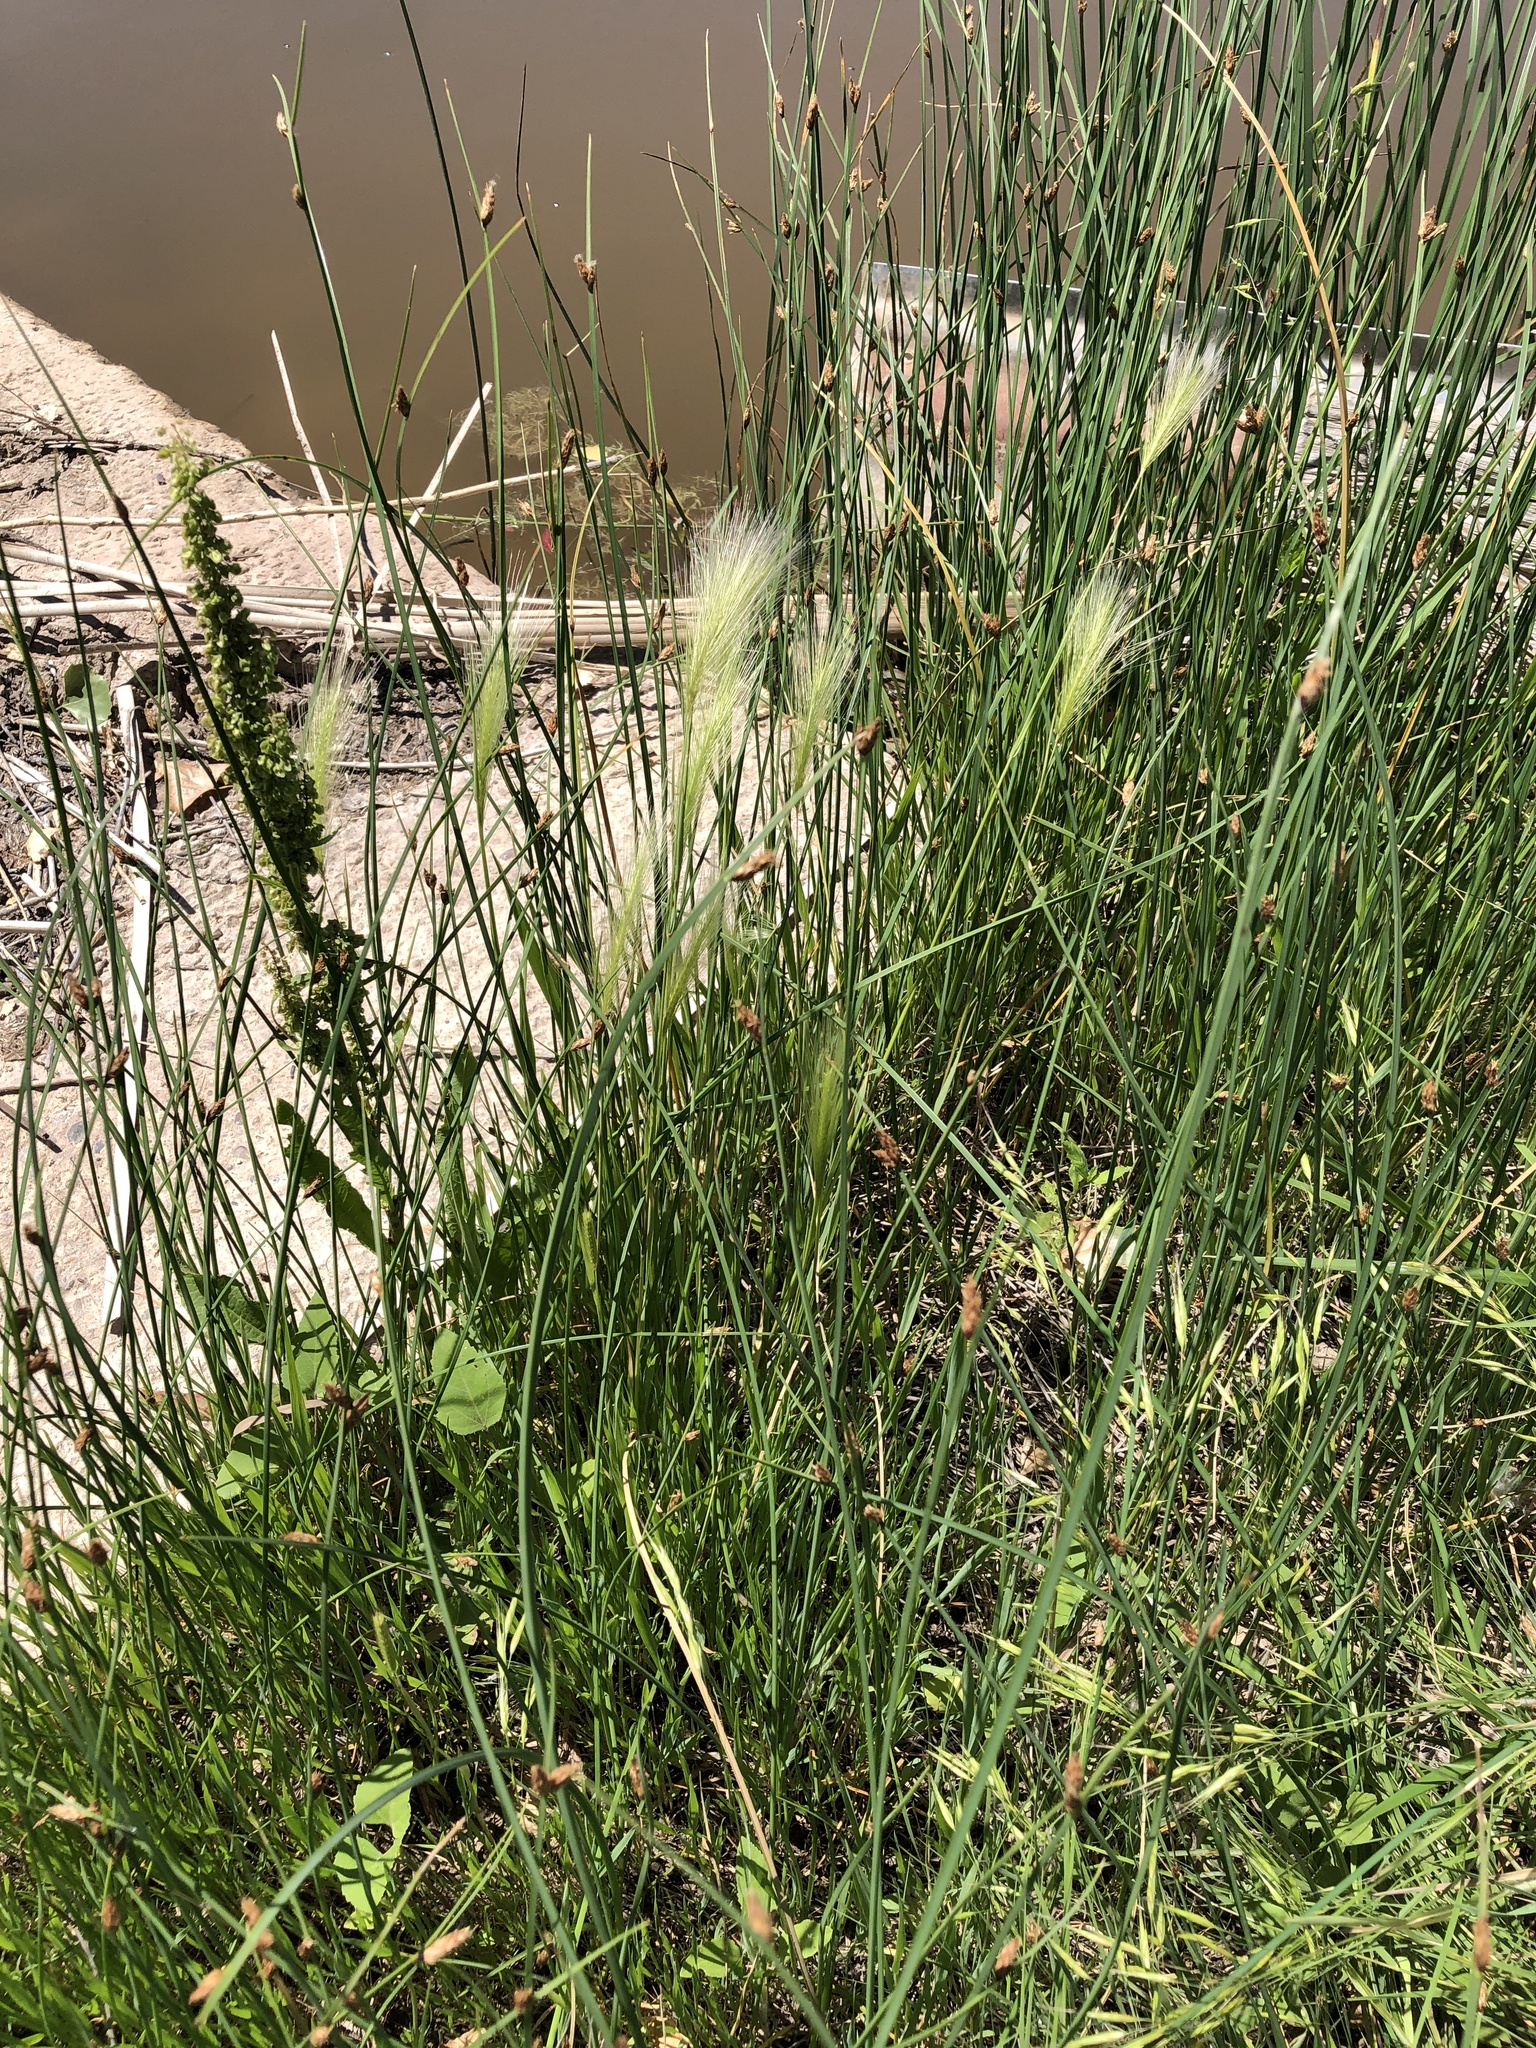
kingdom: Plantae
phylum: Tracheophyta
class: Liliopsida
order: Poales
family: Poaceae
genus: Hordeum
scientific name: Hordeum jubatum
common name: Foxtail barley
